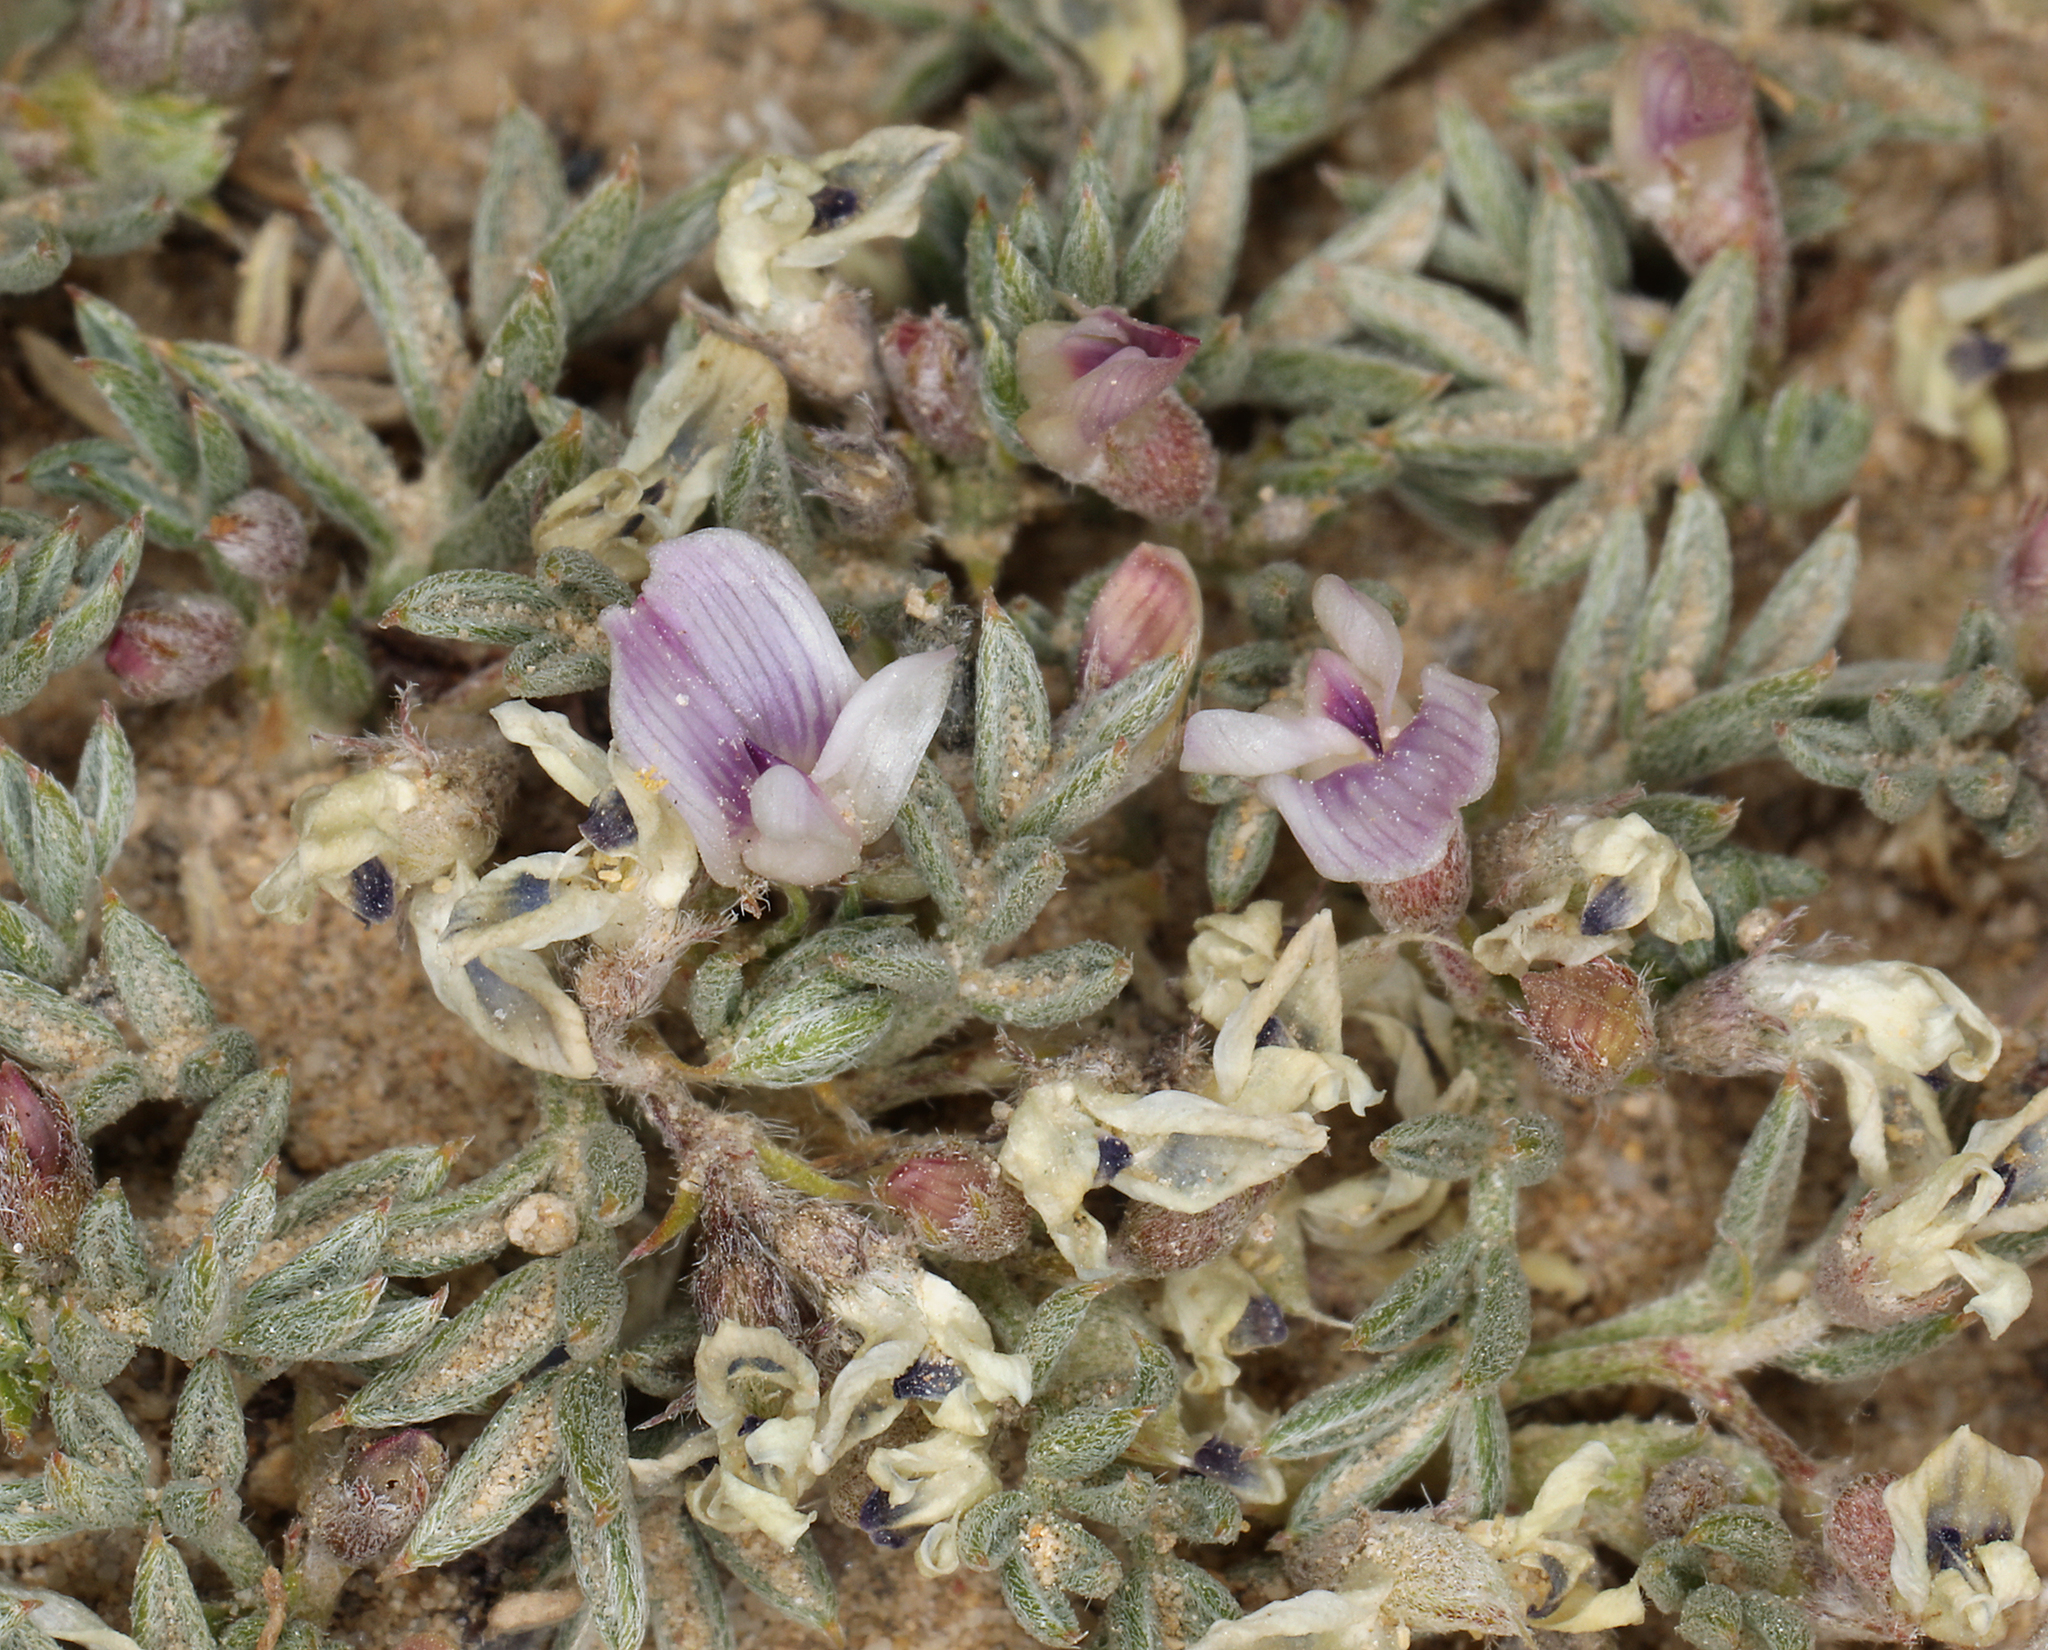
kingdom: Plantae
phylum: Tracheophyta
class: Magnoliopsida
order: Fabales
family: Fabaceae
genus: Astragalus
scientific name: Astragalus kentrophyta
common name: Prickly milk-vetch
